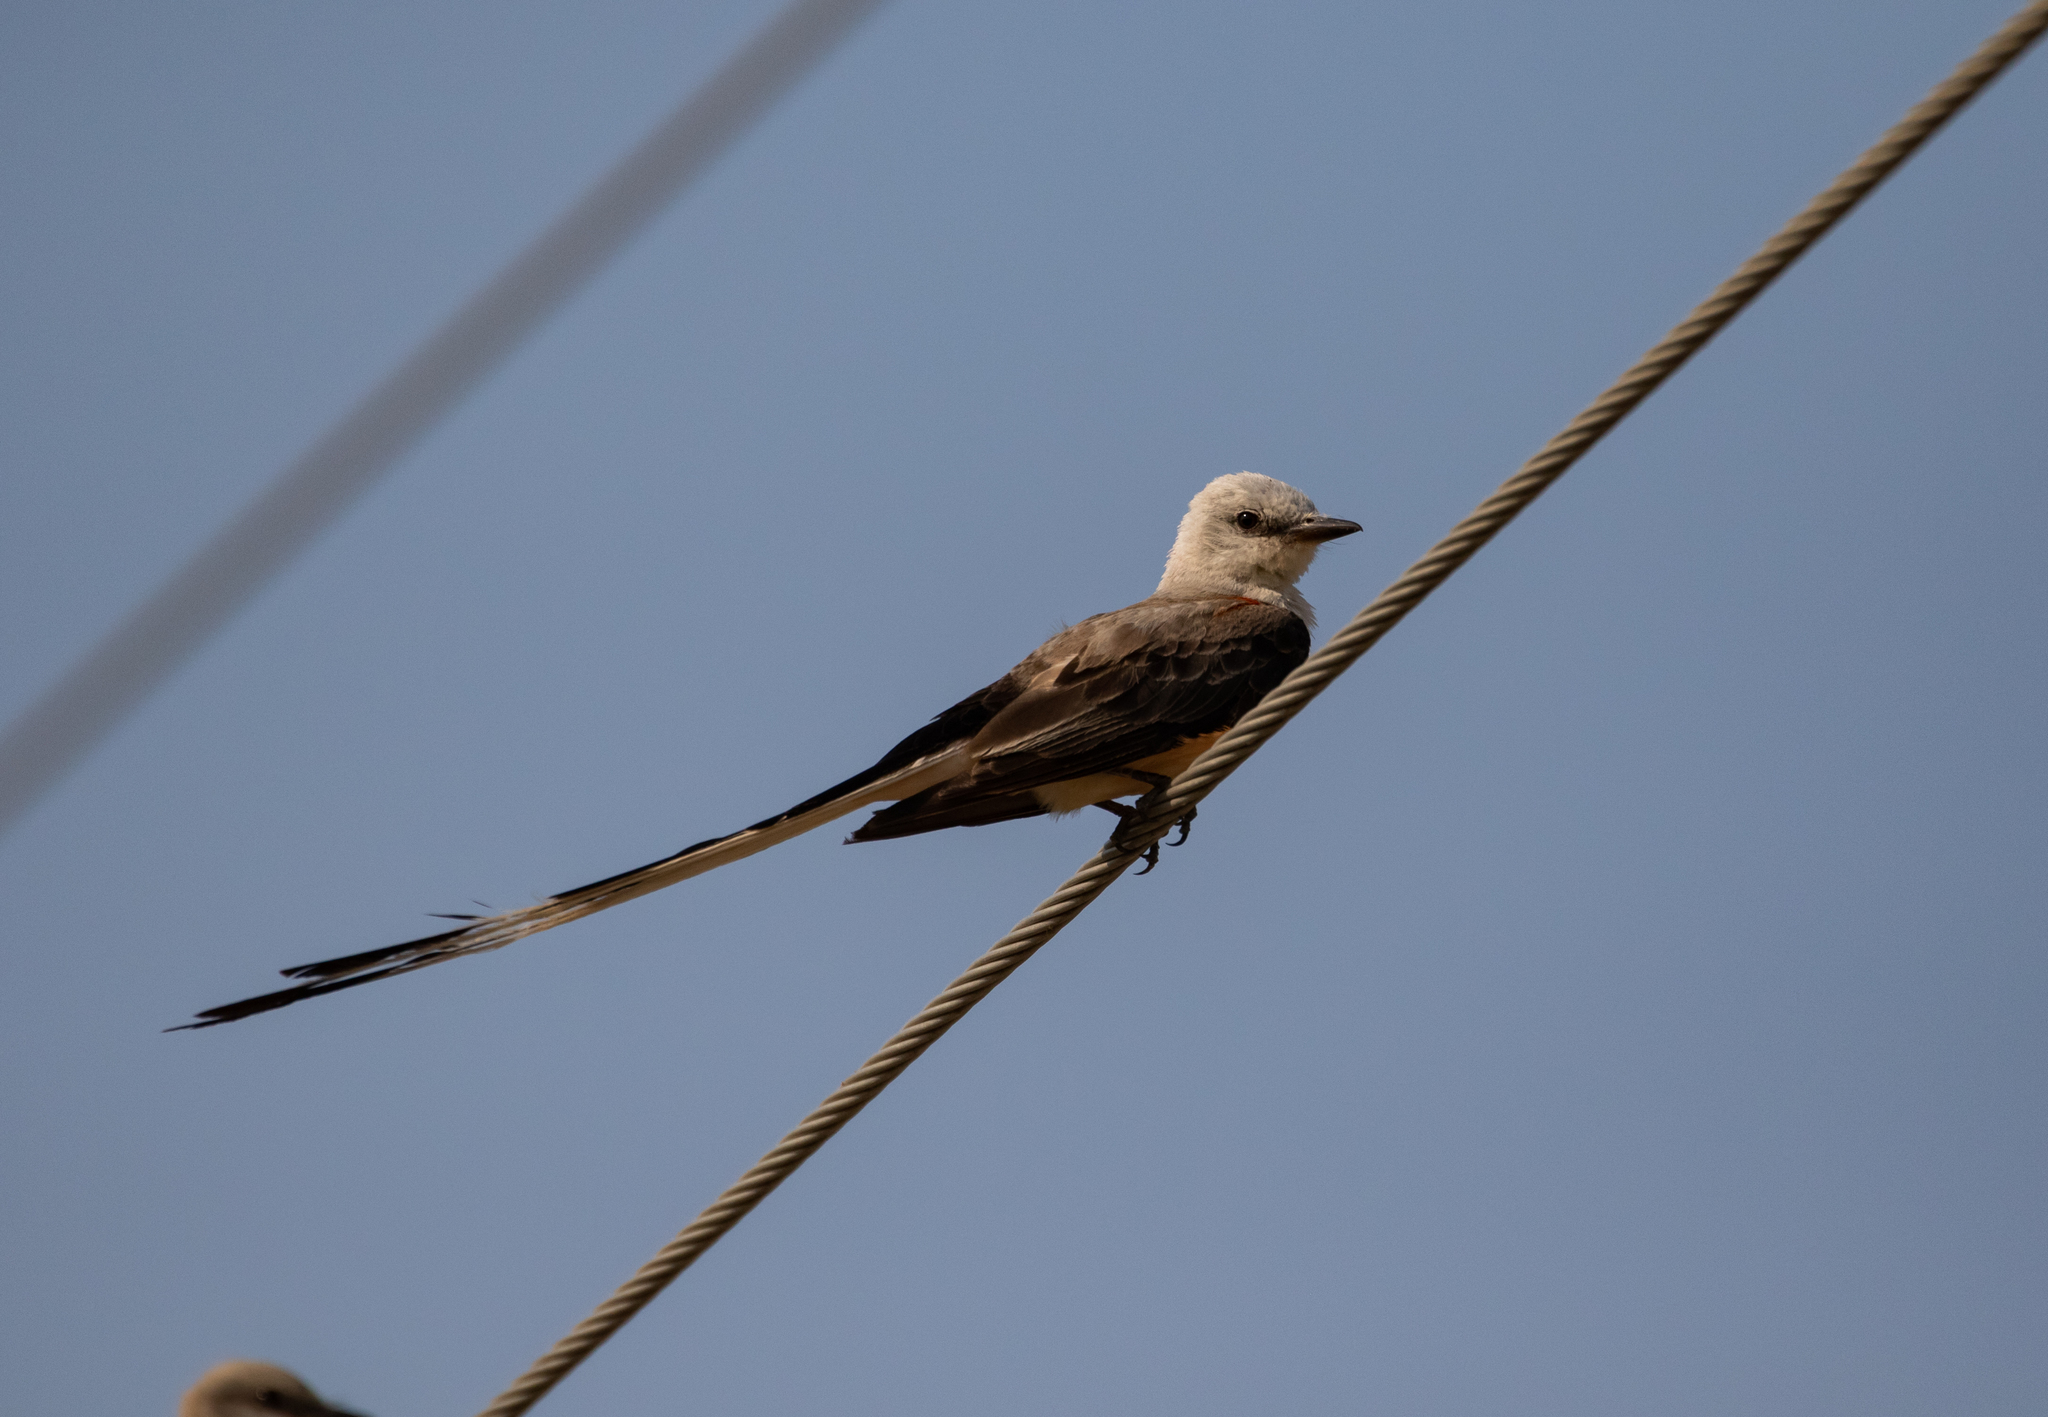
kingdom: Animalia
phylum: Chordata
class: Aves
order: Passeriformes
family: Tyrannidae
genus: Tyrannus
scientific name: Tyrannus forficatus
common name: Scissor-tailed flycatcher
